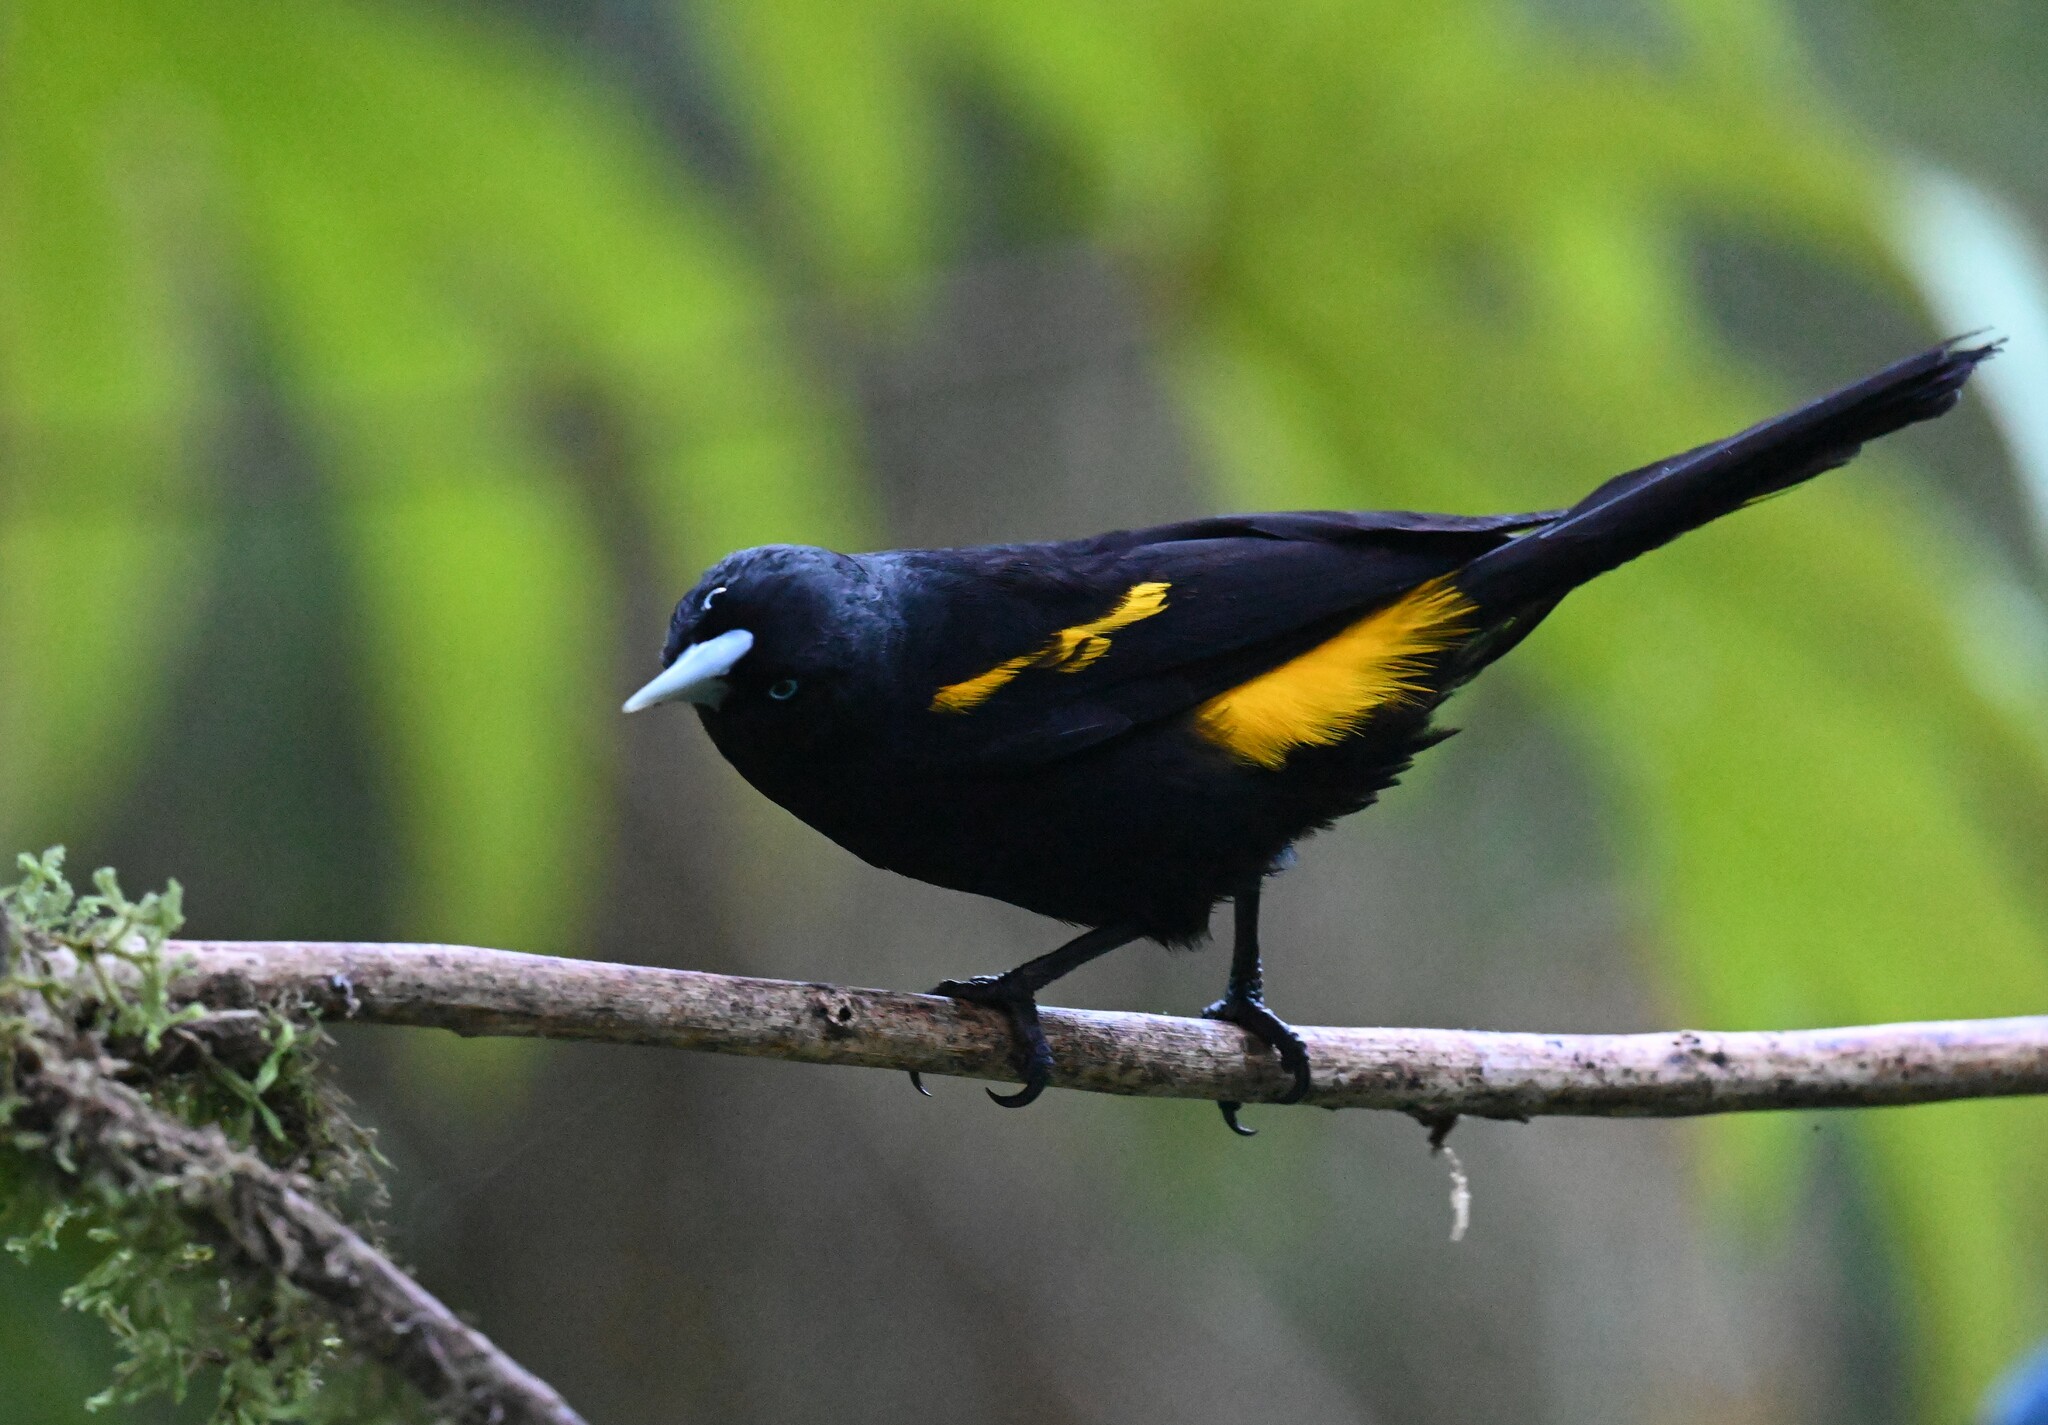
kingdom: Animalia
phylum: Chordata
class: Aves
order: Passeriformes
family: Icteridae
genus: Cacicus
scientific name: Cacicus chrysonotus
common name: Southern mountain cacique
